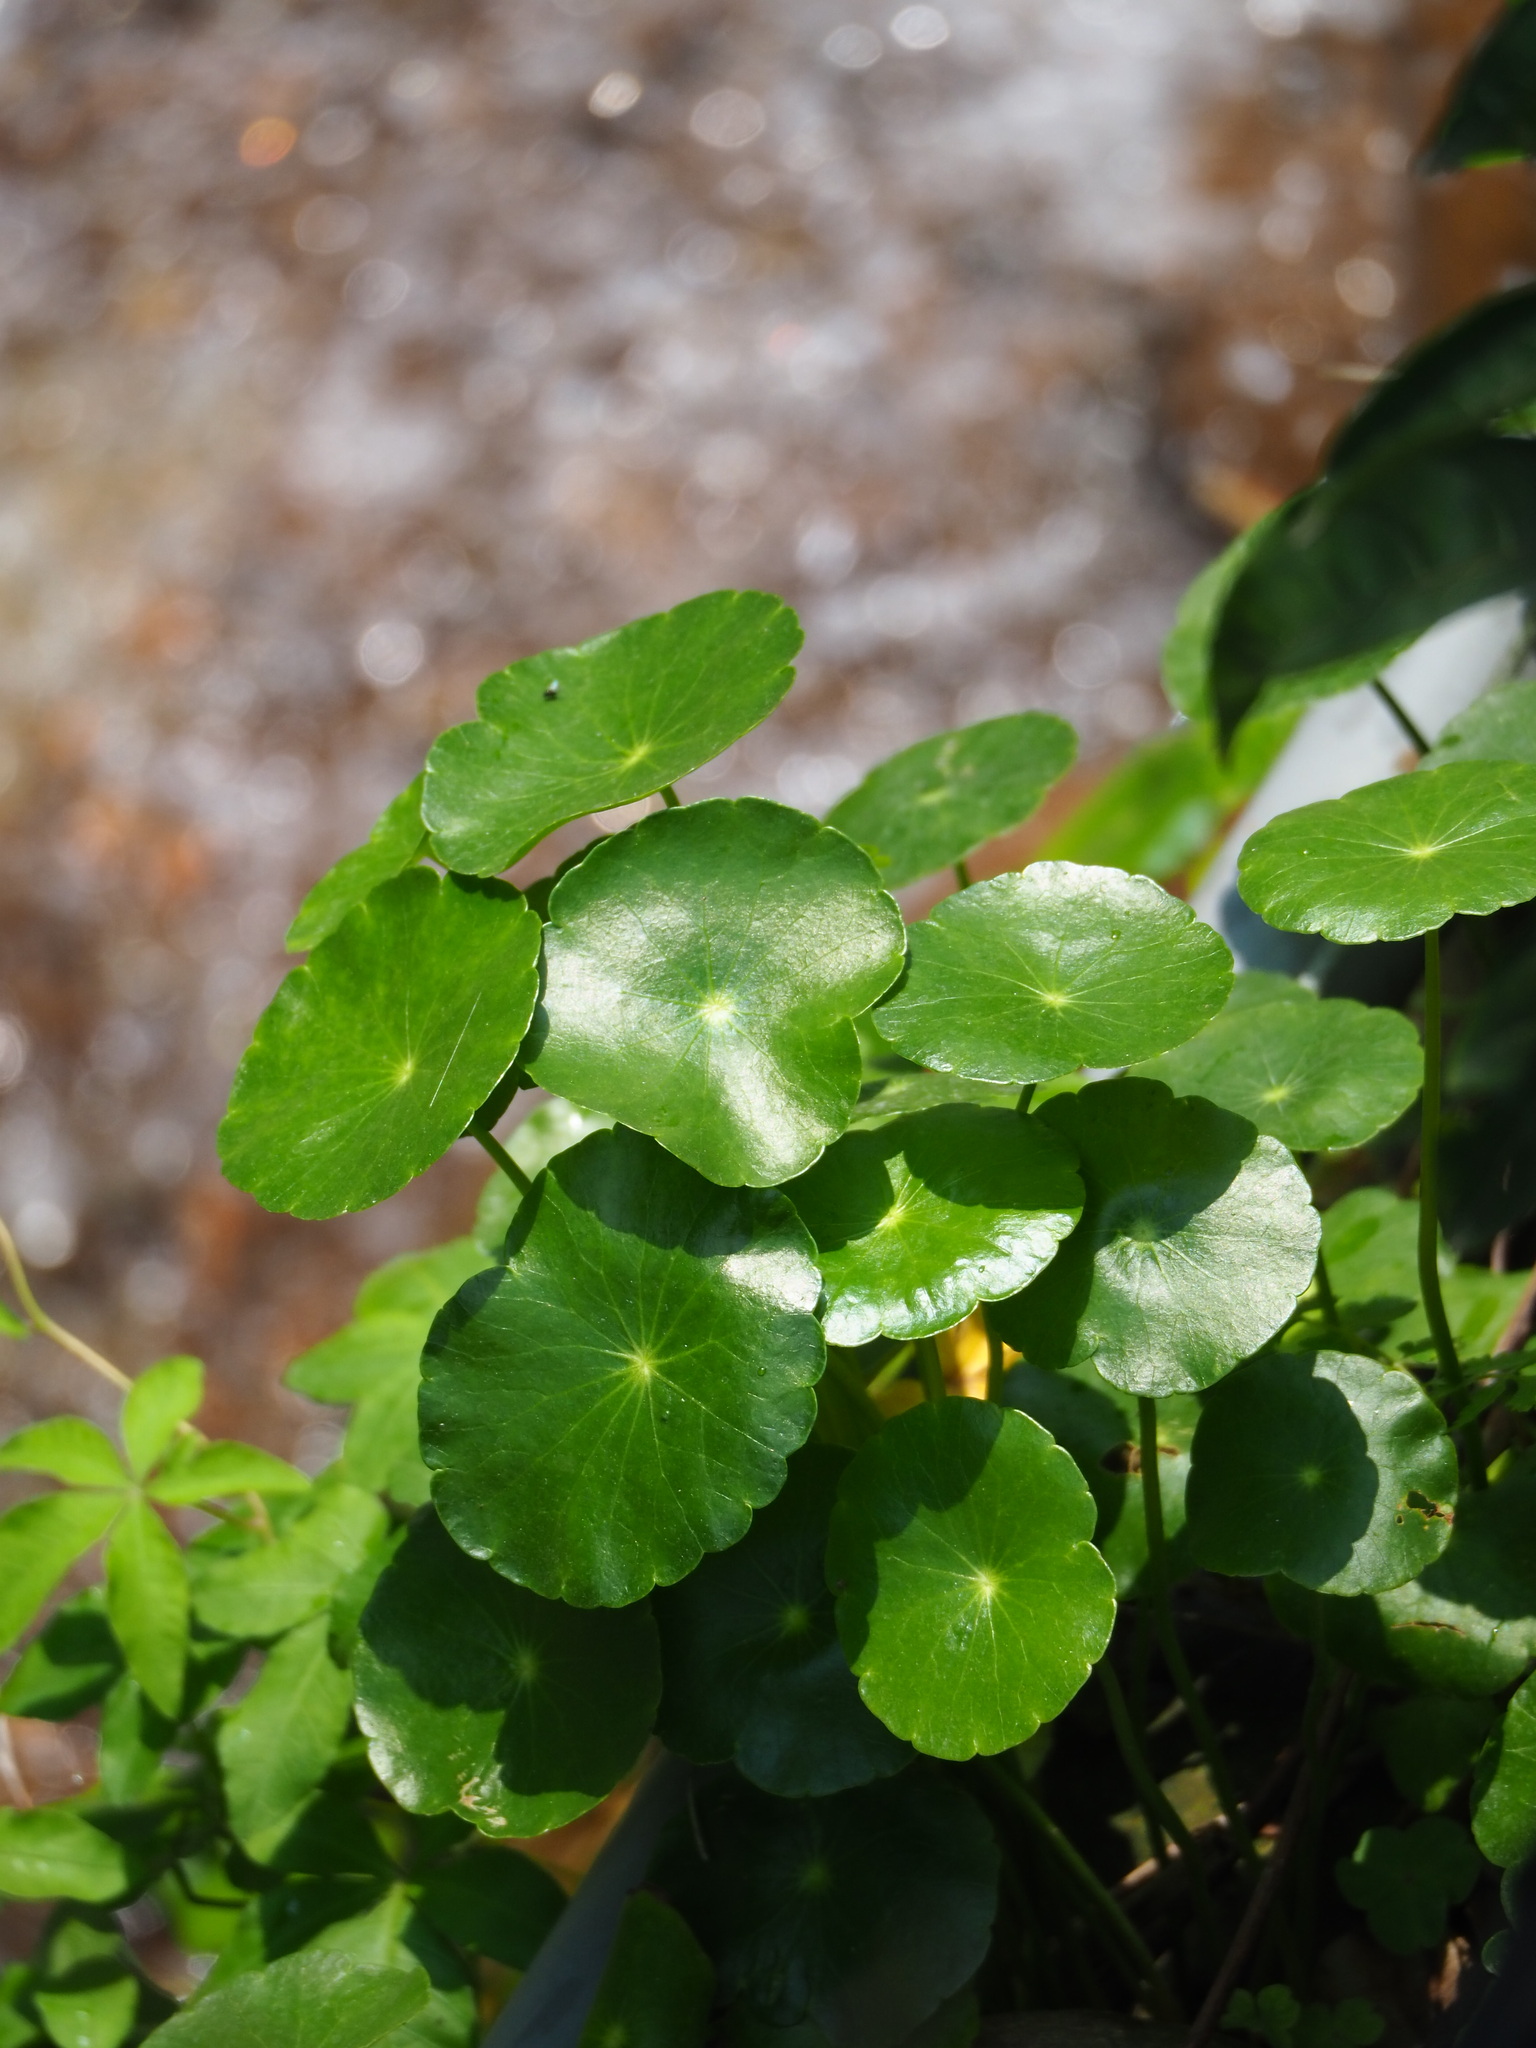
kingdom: Plantae
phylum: Tracheophyta
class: Magnoliopsida
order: Apiales
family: Araliaceae
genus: Hydrocotyle
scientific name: Hydrocotyle verticillata
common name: Whorled marshpennywort
